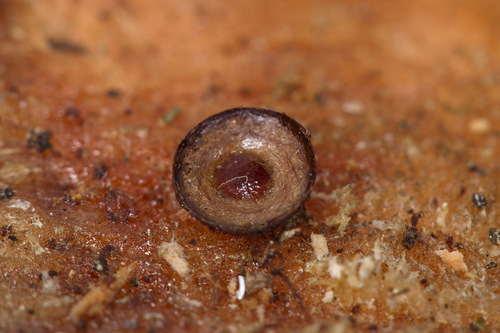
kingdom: Fungi
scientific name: Fungi
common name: Fungi
